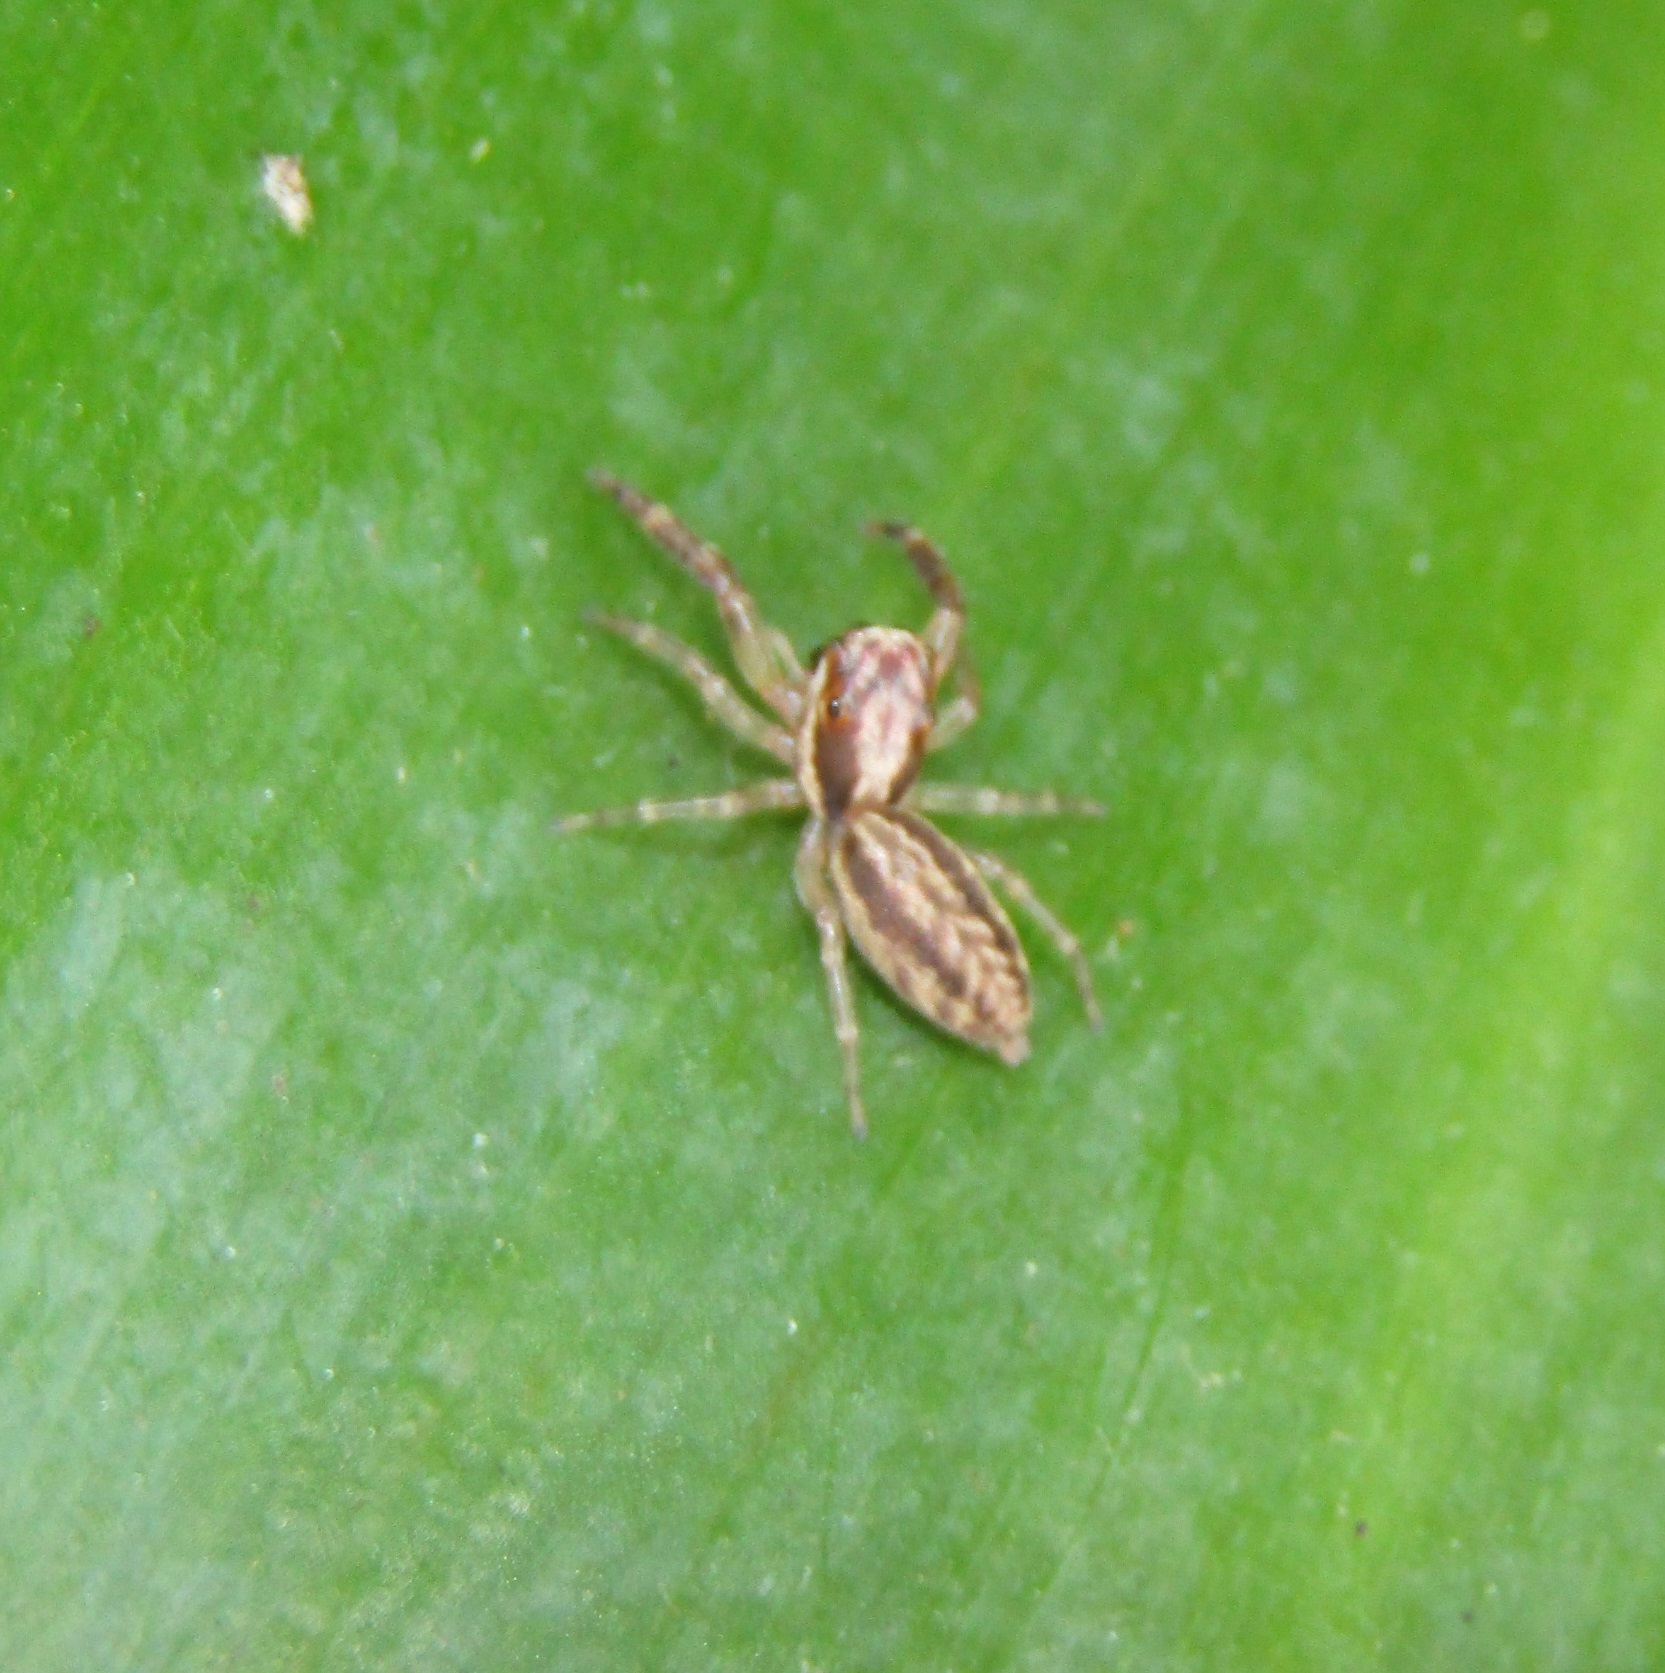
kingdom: Animalia
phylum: Arthropoda
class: Arachnida
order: Araneae
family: Salticidae
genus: Trite
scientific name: Trite mustilina
